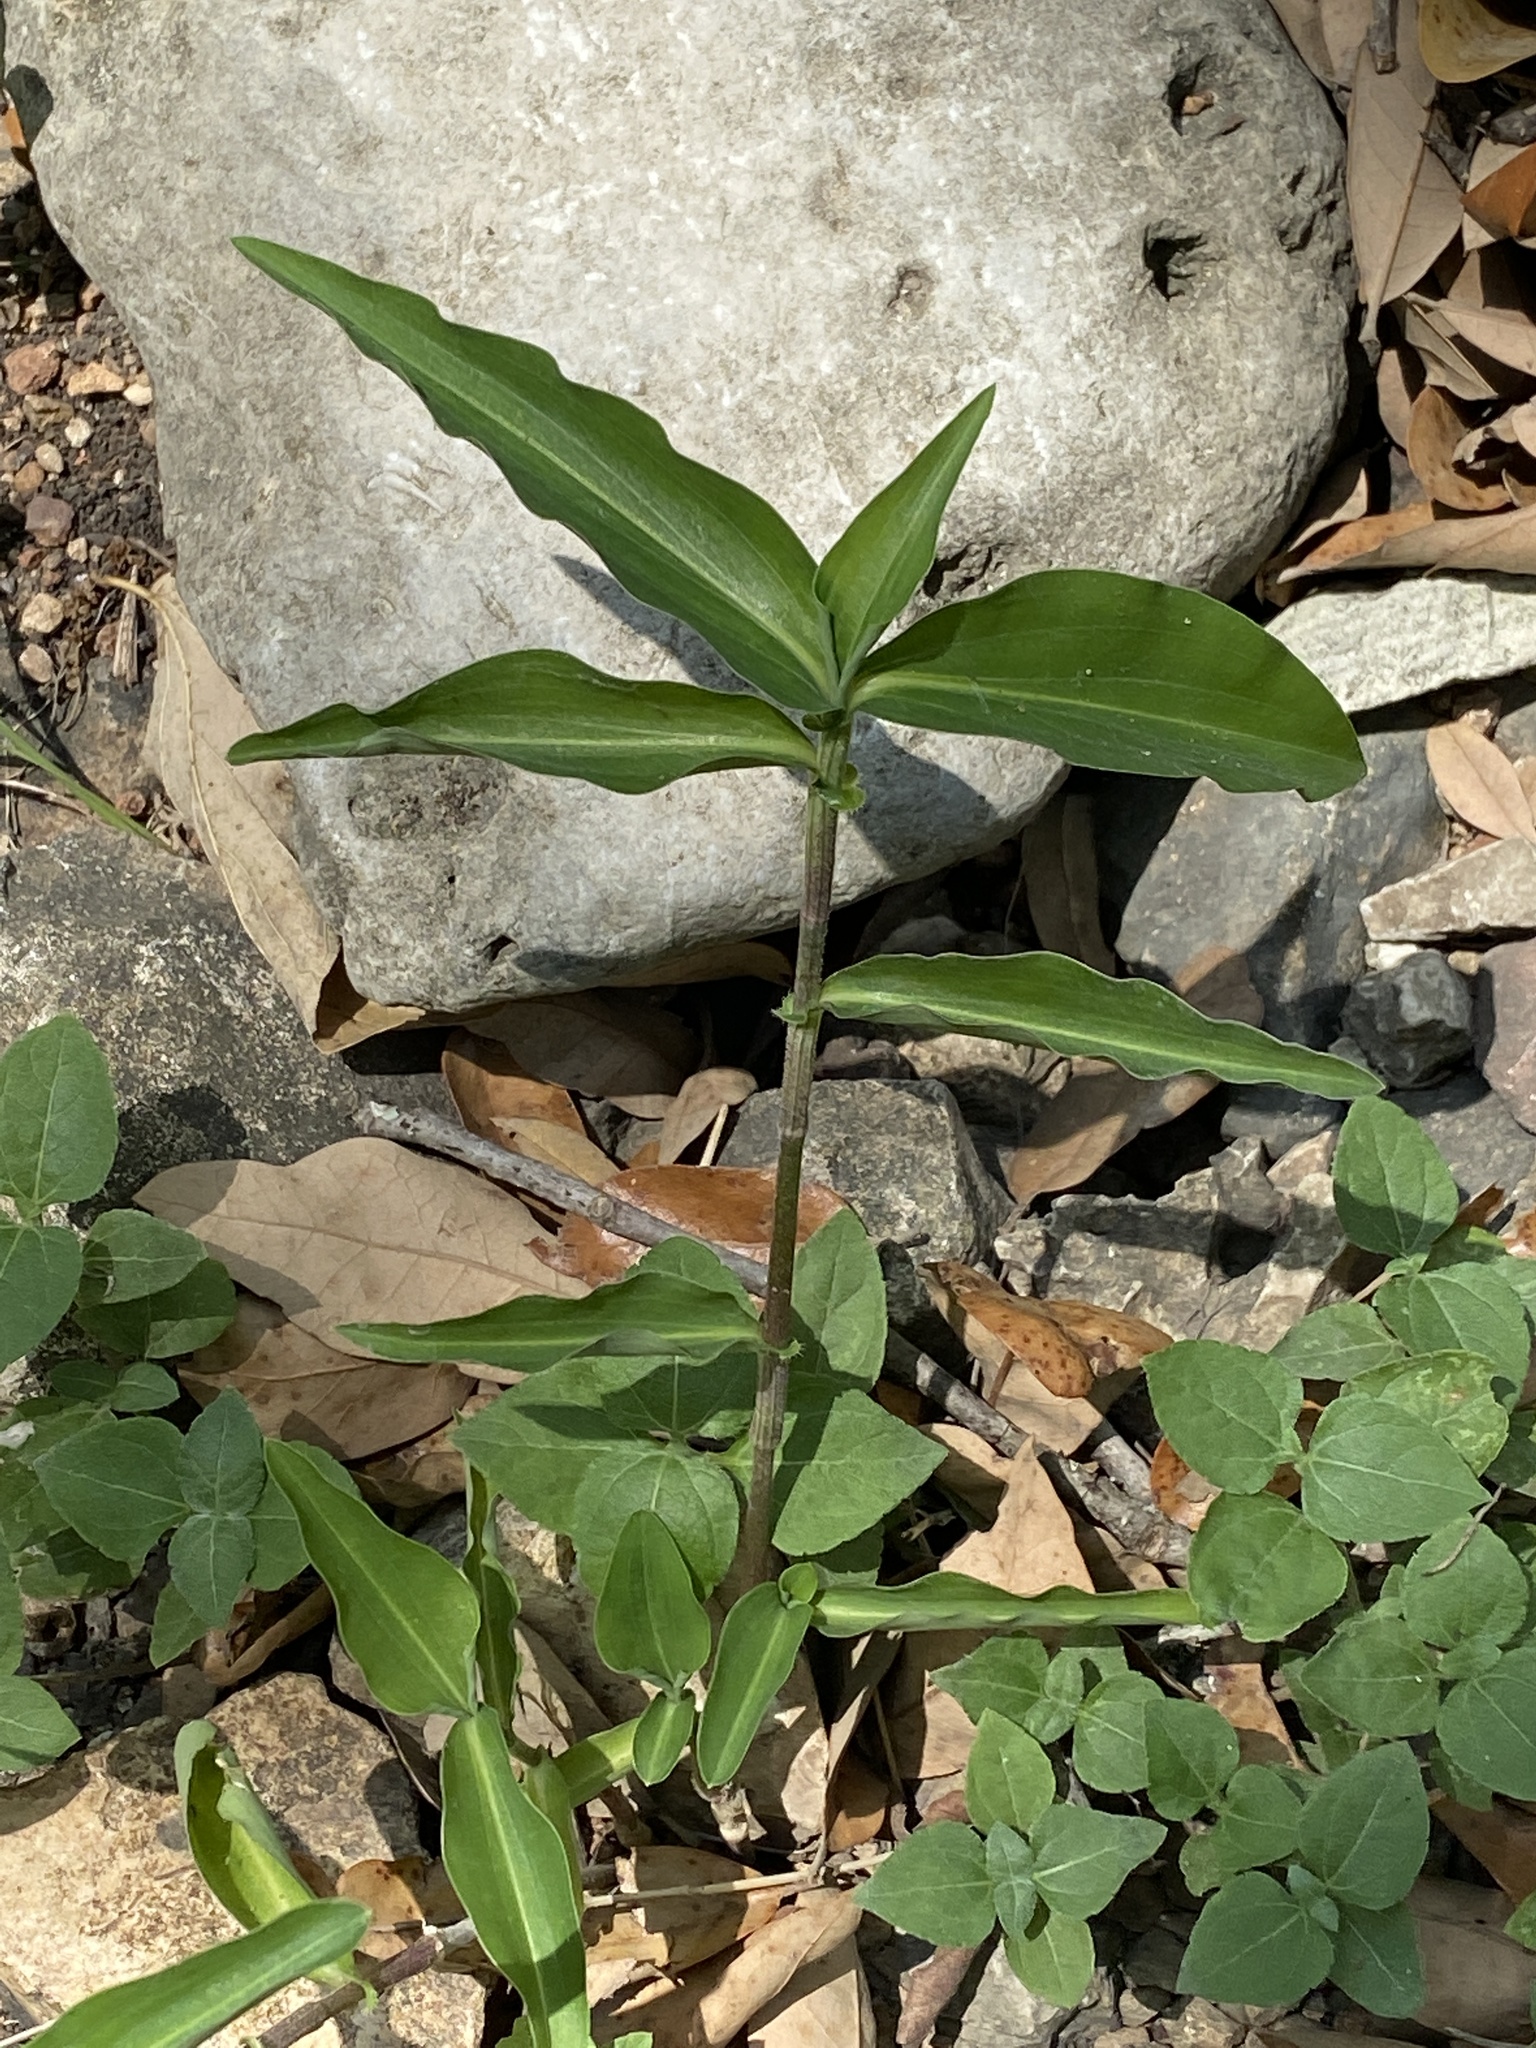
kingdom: Plantae
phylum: Tracheophyta
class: Liliopsida
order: Commelinales
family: Commelinaceae
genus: Commelina
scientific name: Commelina erecta
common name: Blousel blommetjie
